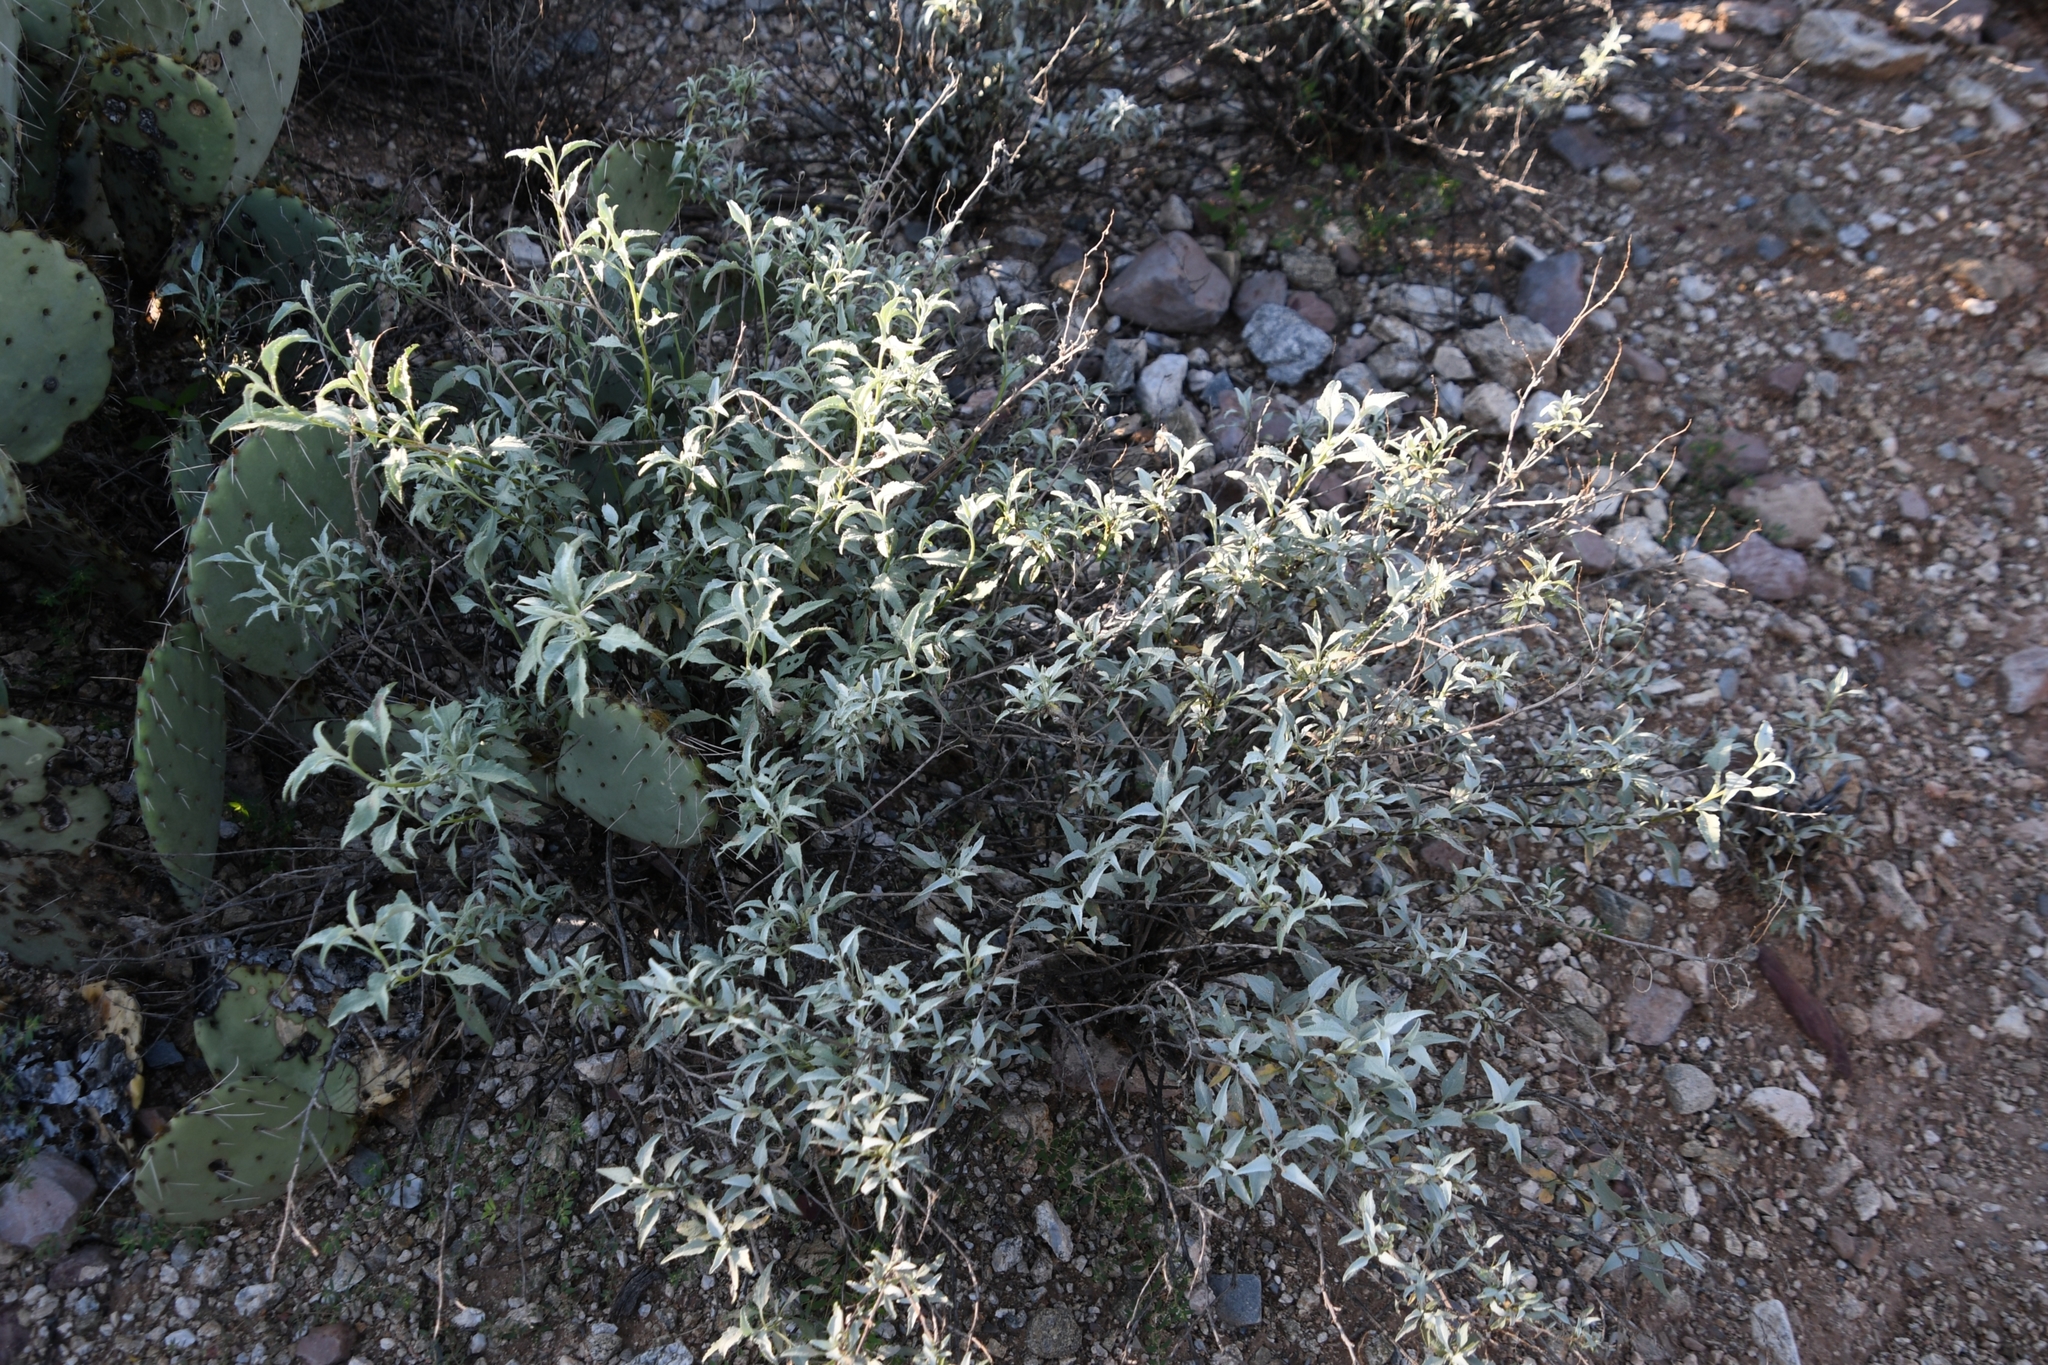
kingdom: Plantae
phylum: Tracheophyta
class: Magnoliopsida
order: Asterales
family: Asteraceae
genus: Ambrosia
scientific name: Ambrosia deltoidea
